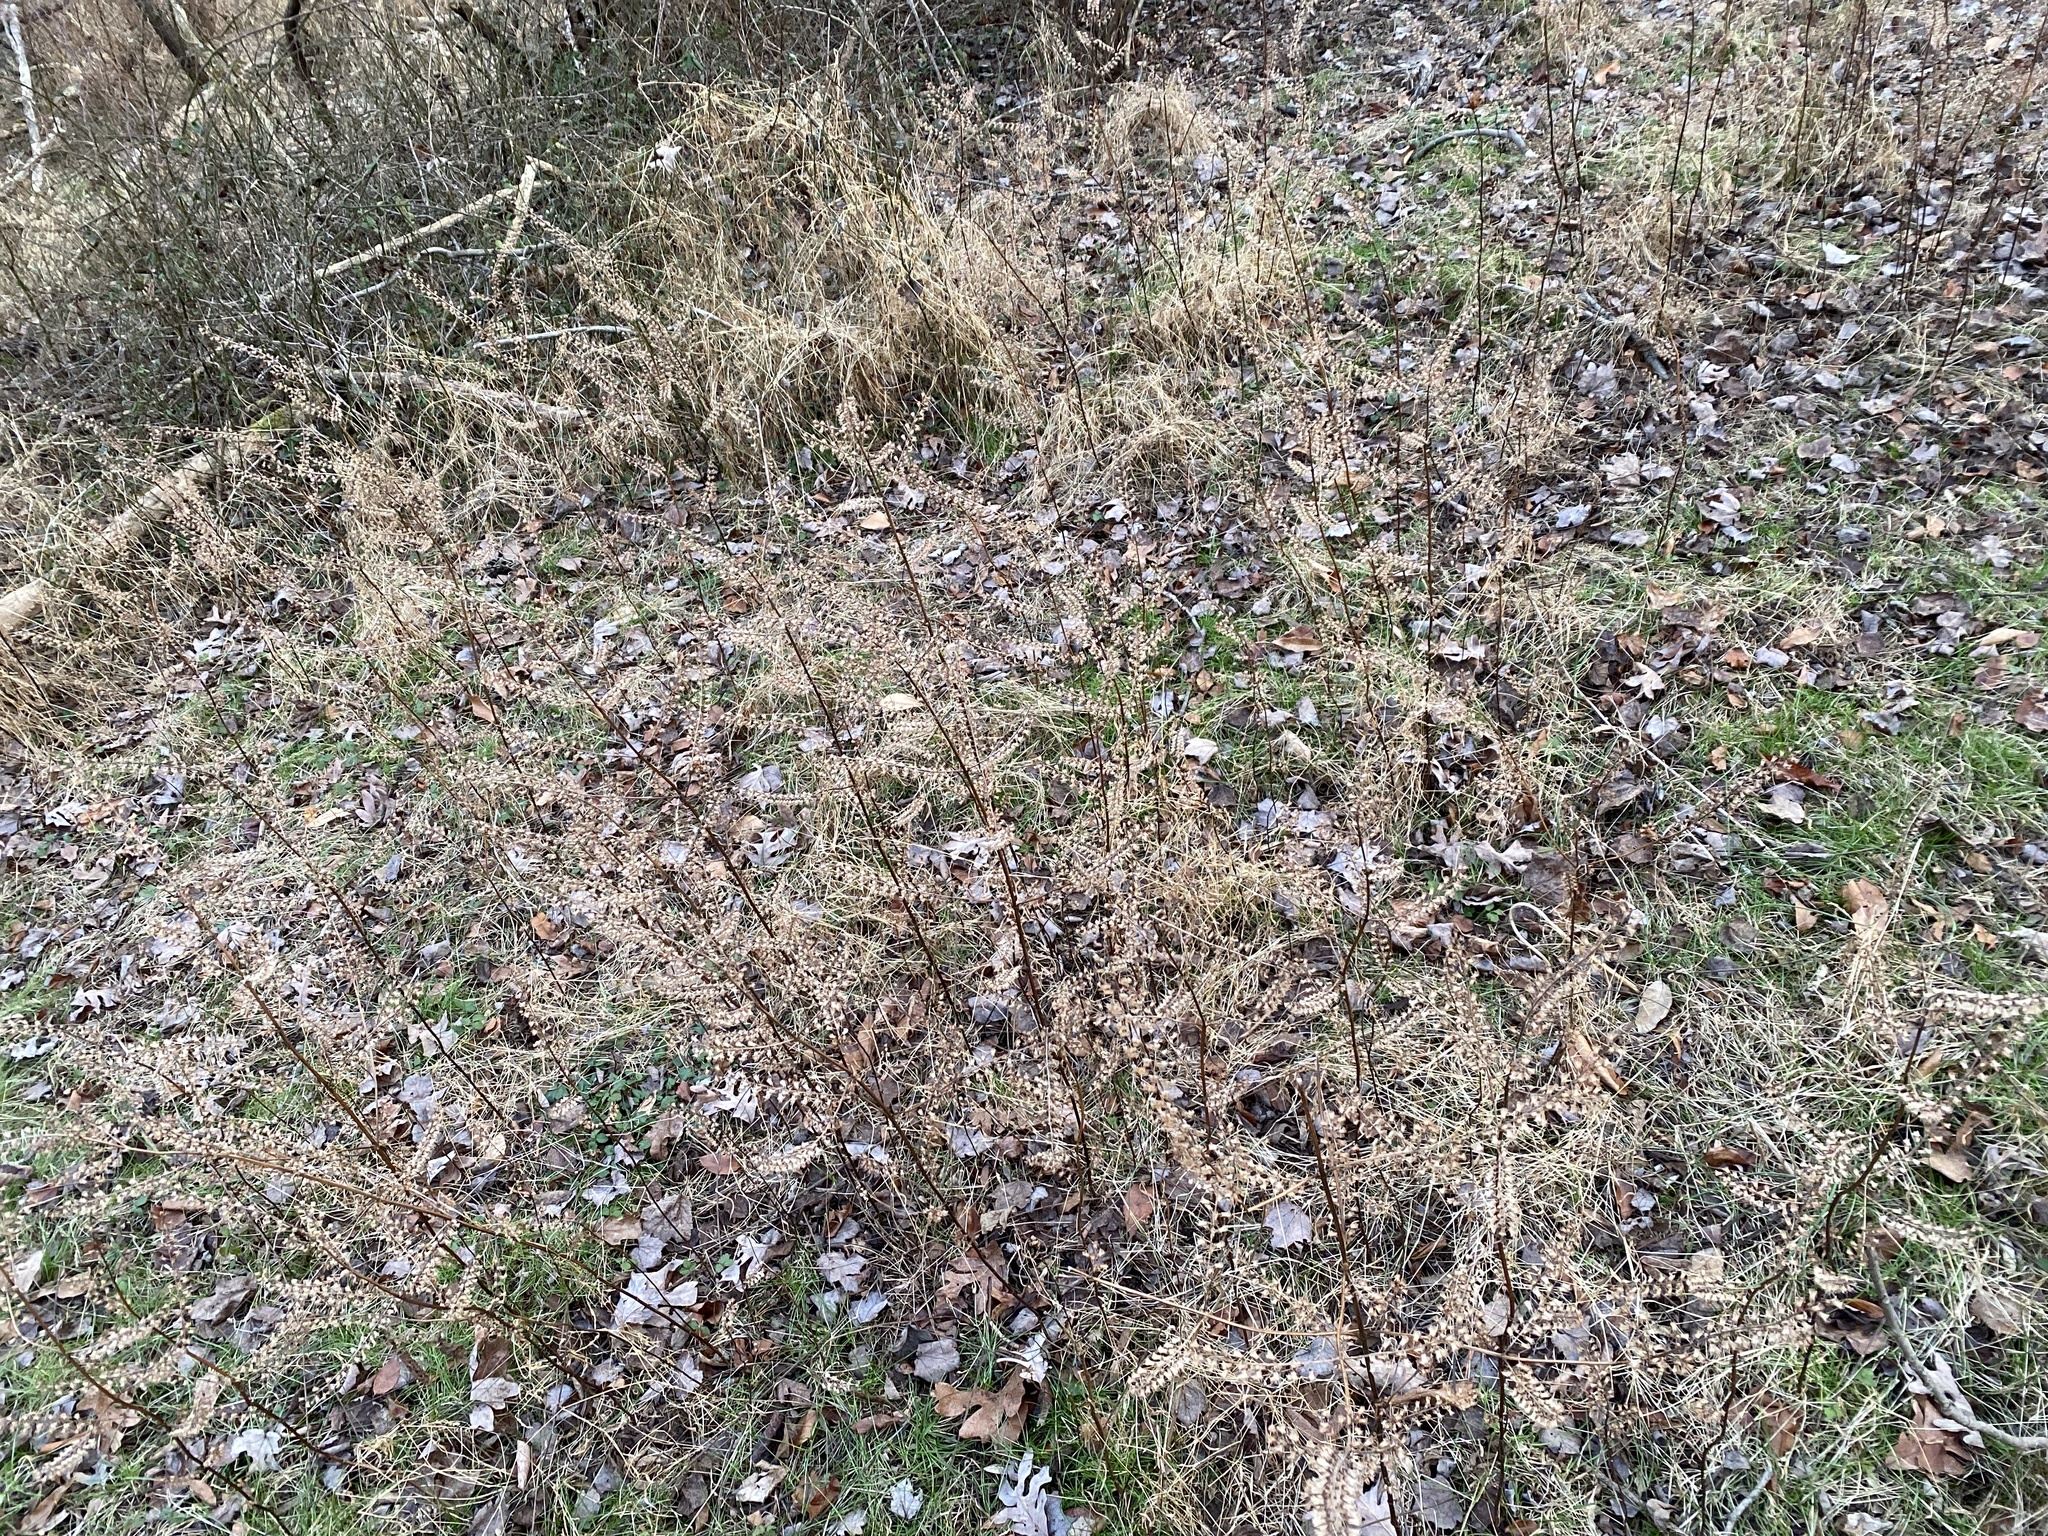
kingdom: Plantae
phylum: Tracheophyta
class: Magnoliopsida
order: Lamiales
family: Lamiaceae
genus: Perilla
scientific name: Perilla frutescens
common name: Perilla
